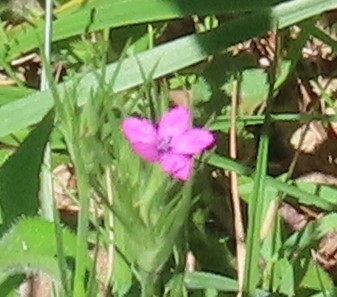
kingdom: Plantae
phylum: Tracheophyta
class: Magnoliopsida
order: Caryophyllales
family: Caryophyllaceae
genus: Dianthus
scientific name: Dianthus armeria
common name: Deptford pink
